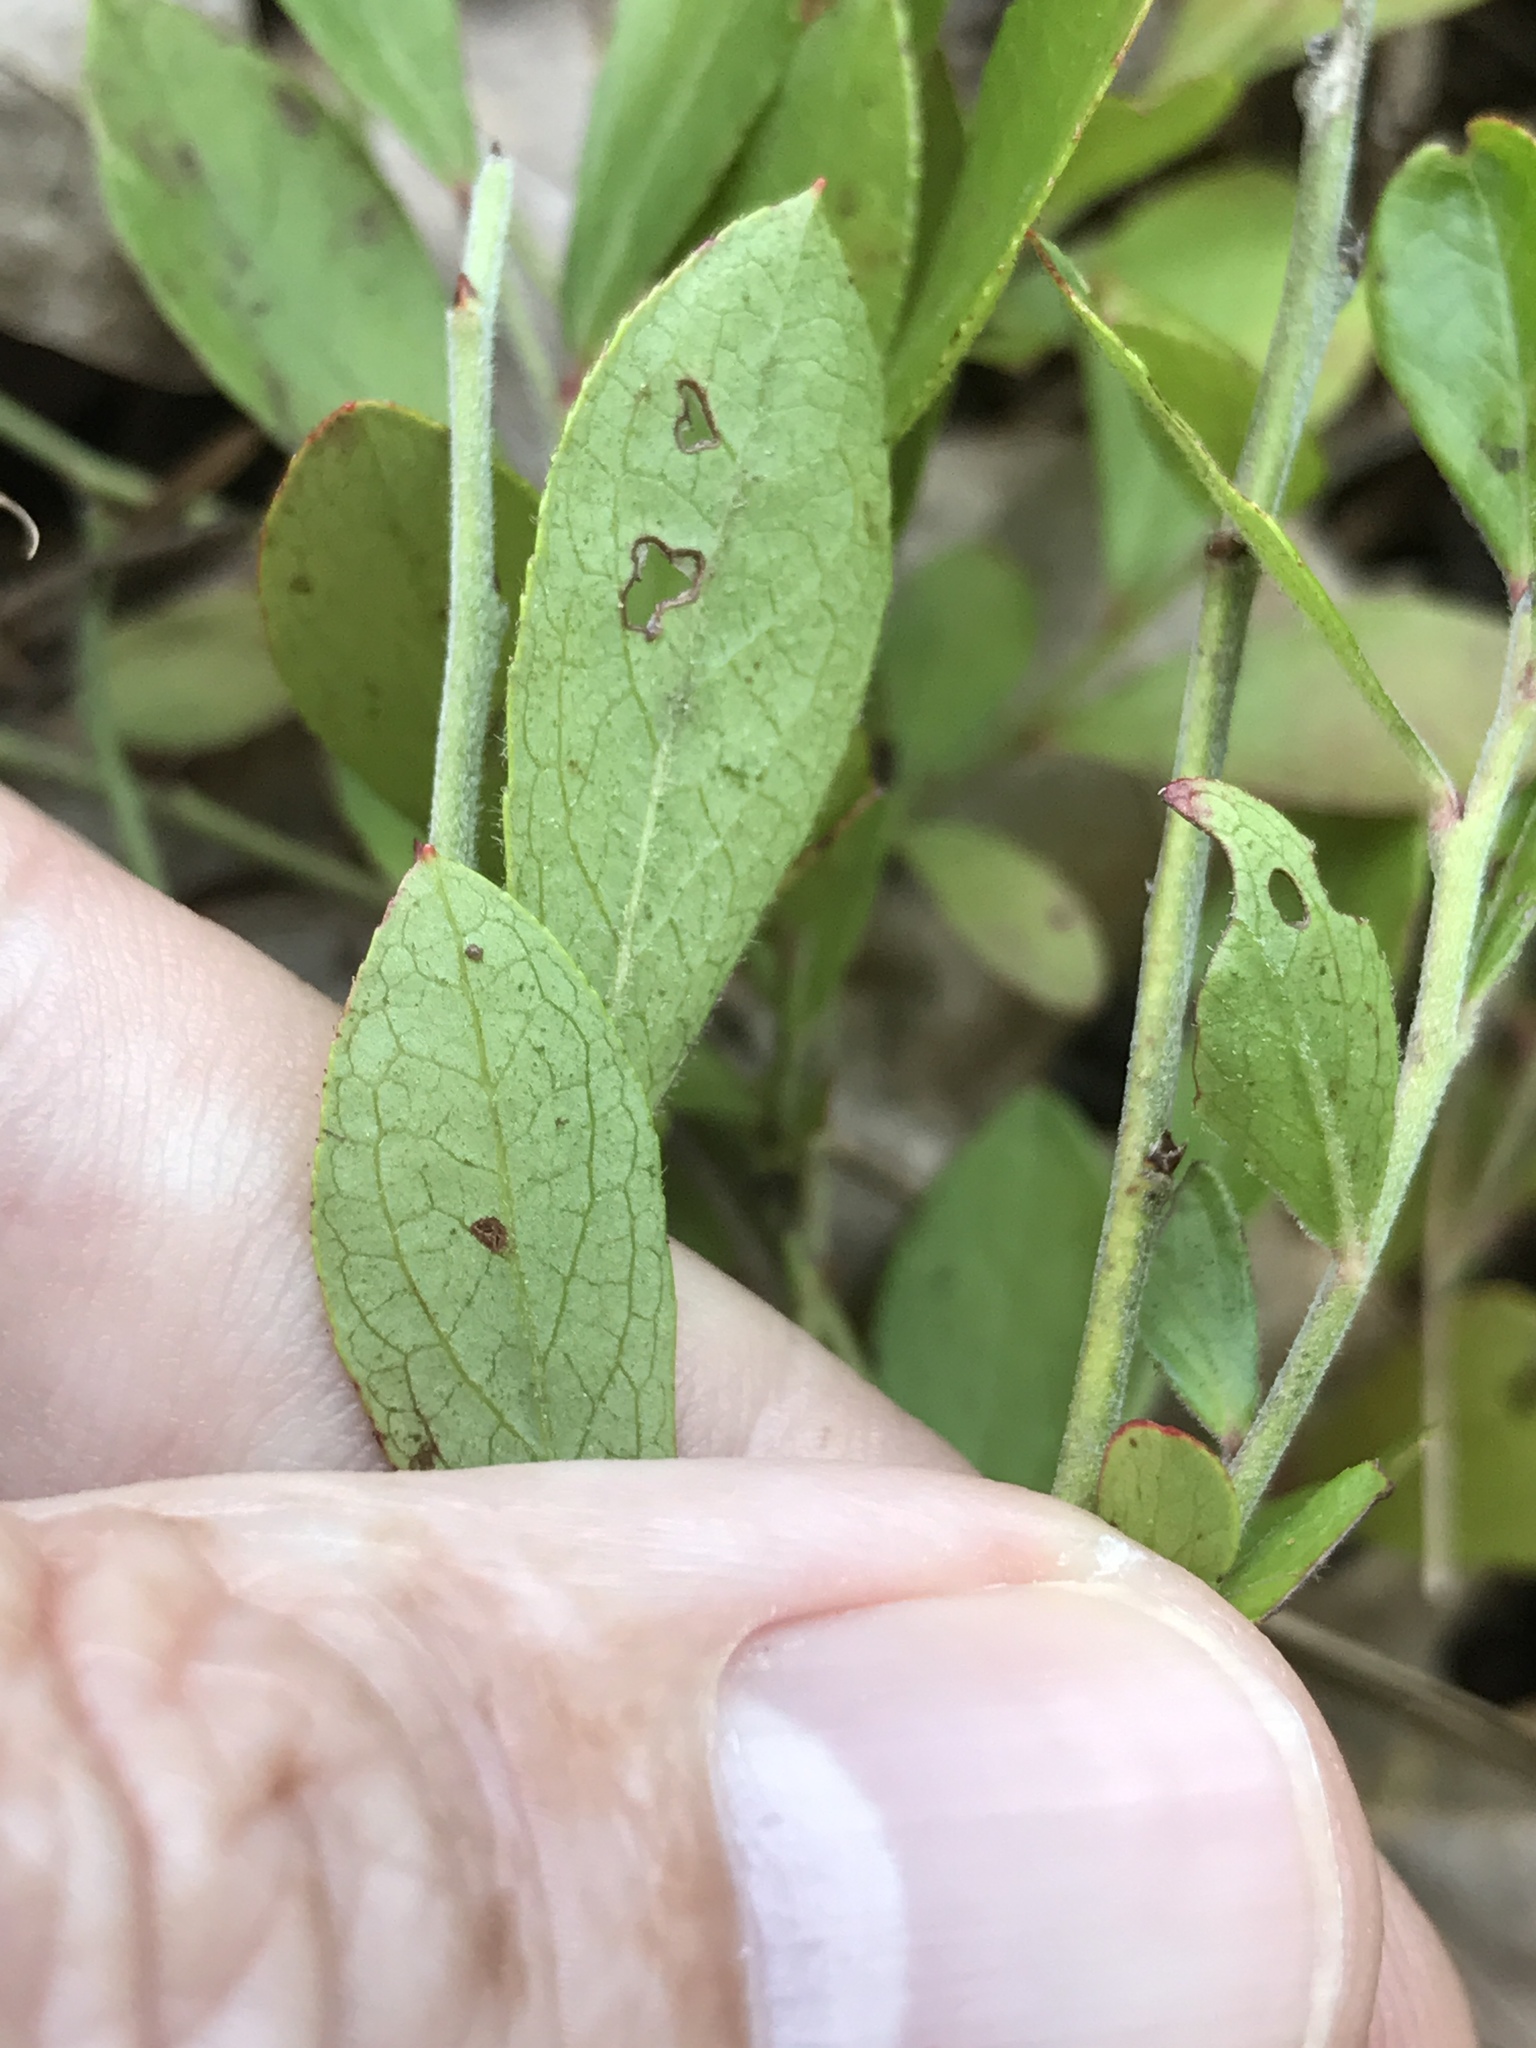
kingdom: Plantae
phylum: Tracheophyta
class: Magnoliopsida
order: Ericales
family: Ericaceae
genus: Vaccinium
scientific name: Vaccinium tenellum
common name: Southern blueberry
